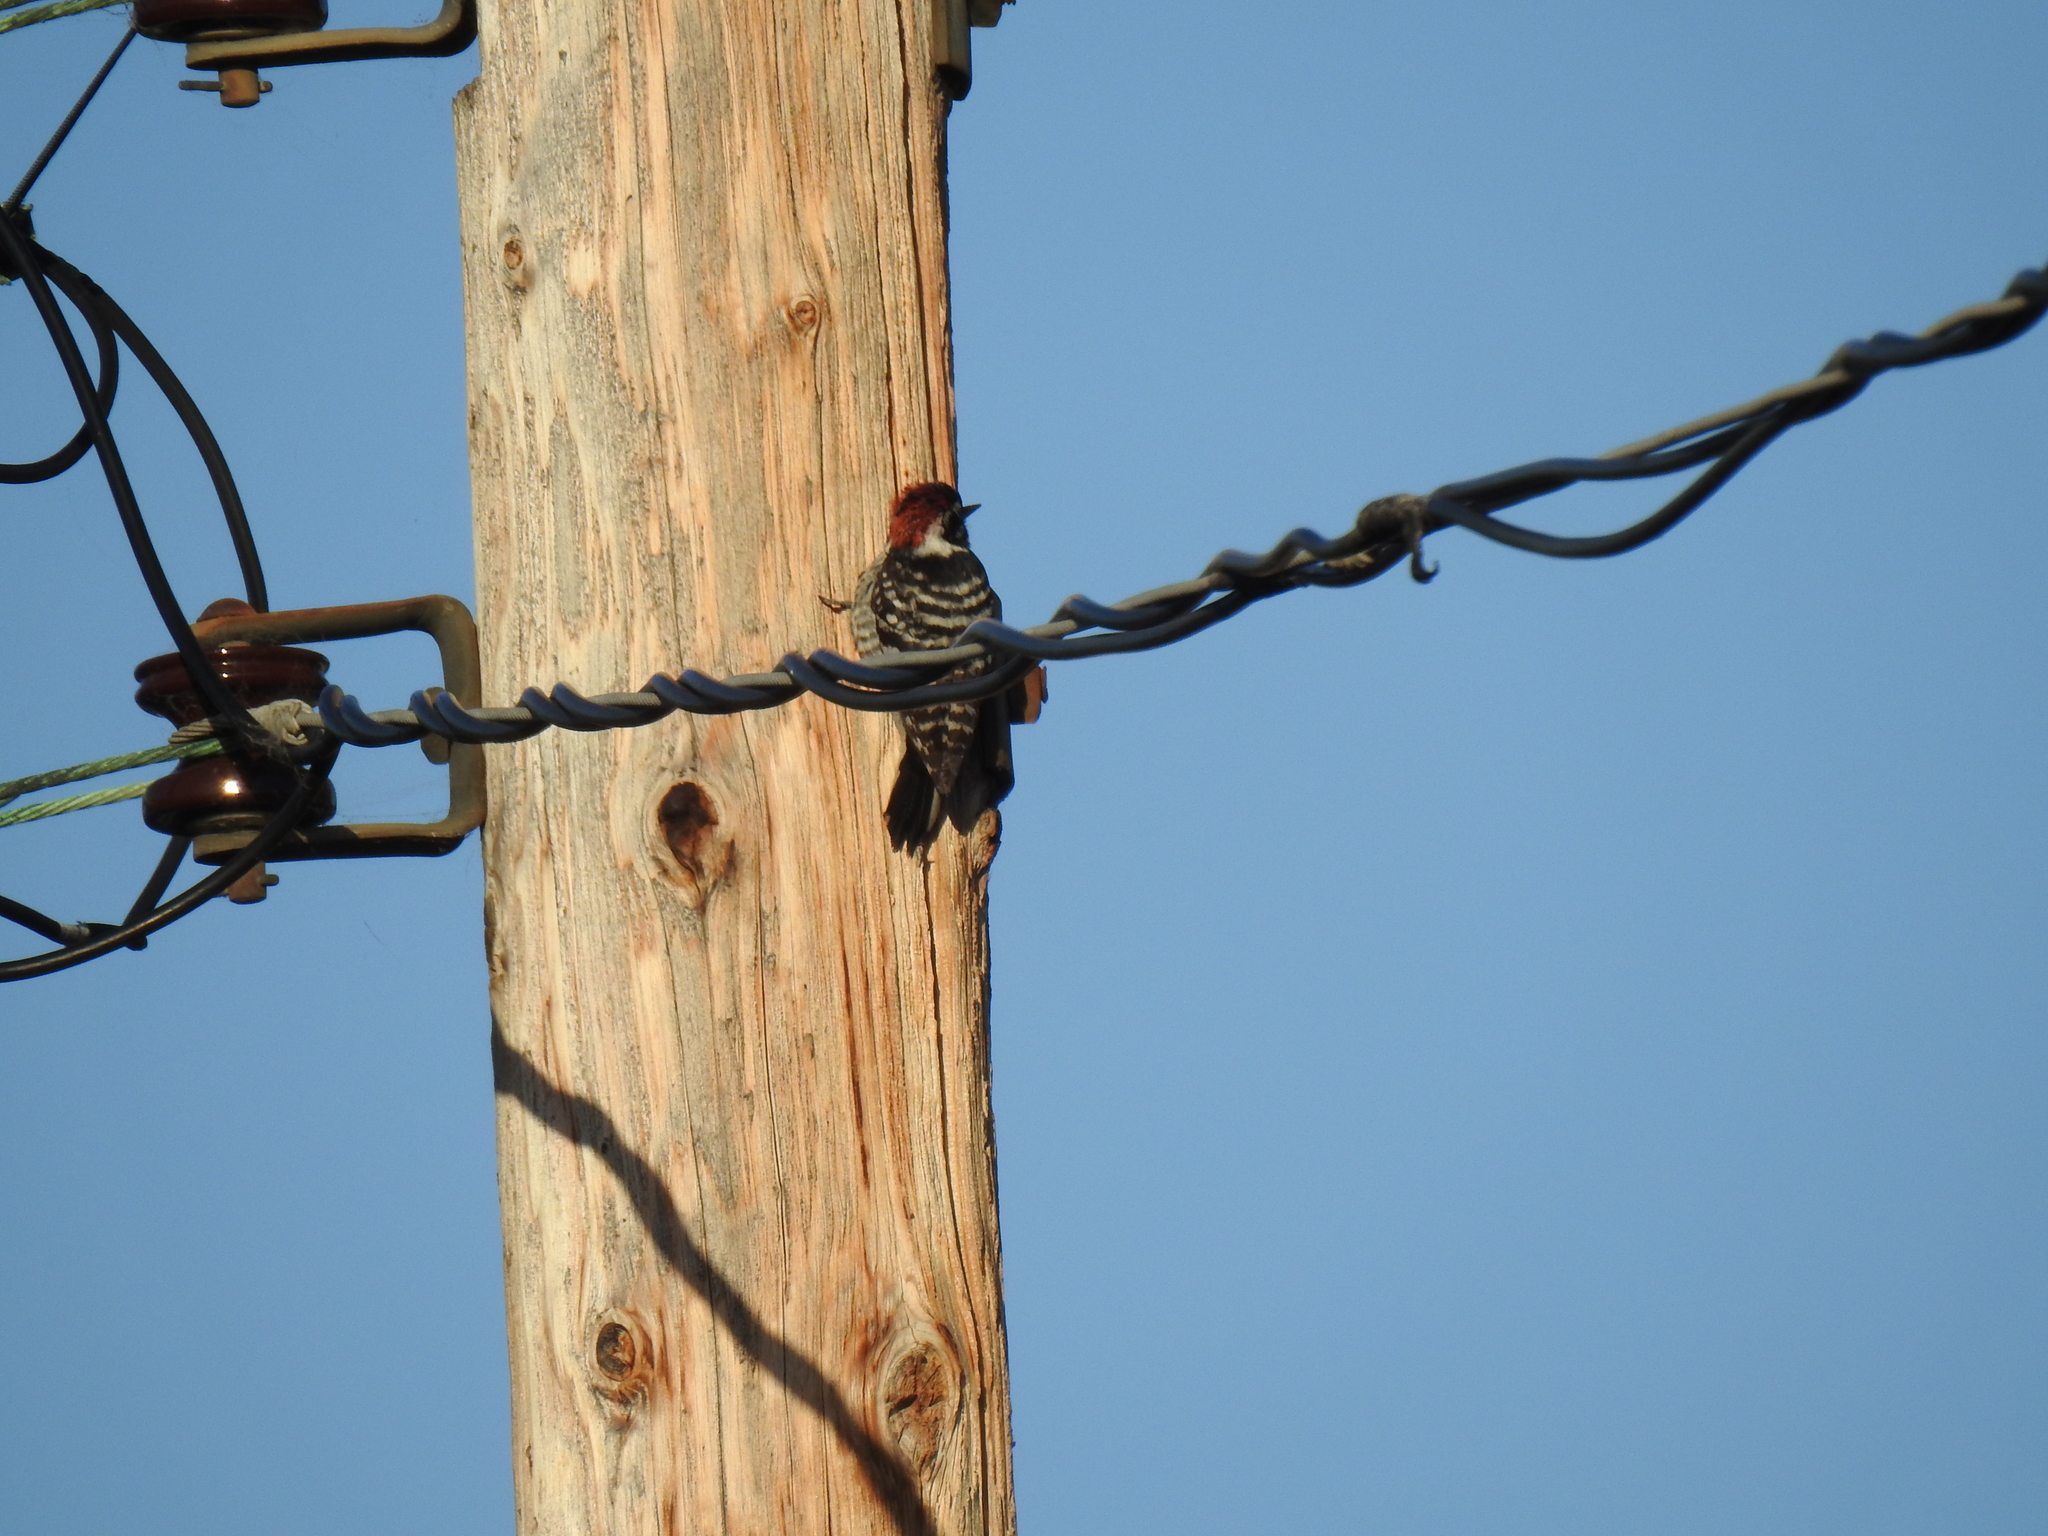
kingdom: Animalia
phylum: Chordata
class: Aves
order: Piciformes
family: Picidae
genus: Dryobates
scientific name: Dryobates nuttallii
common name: Nuttall's woodpecker
